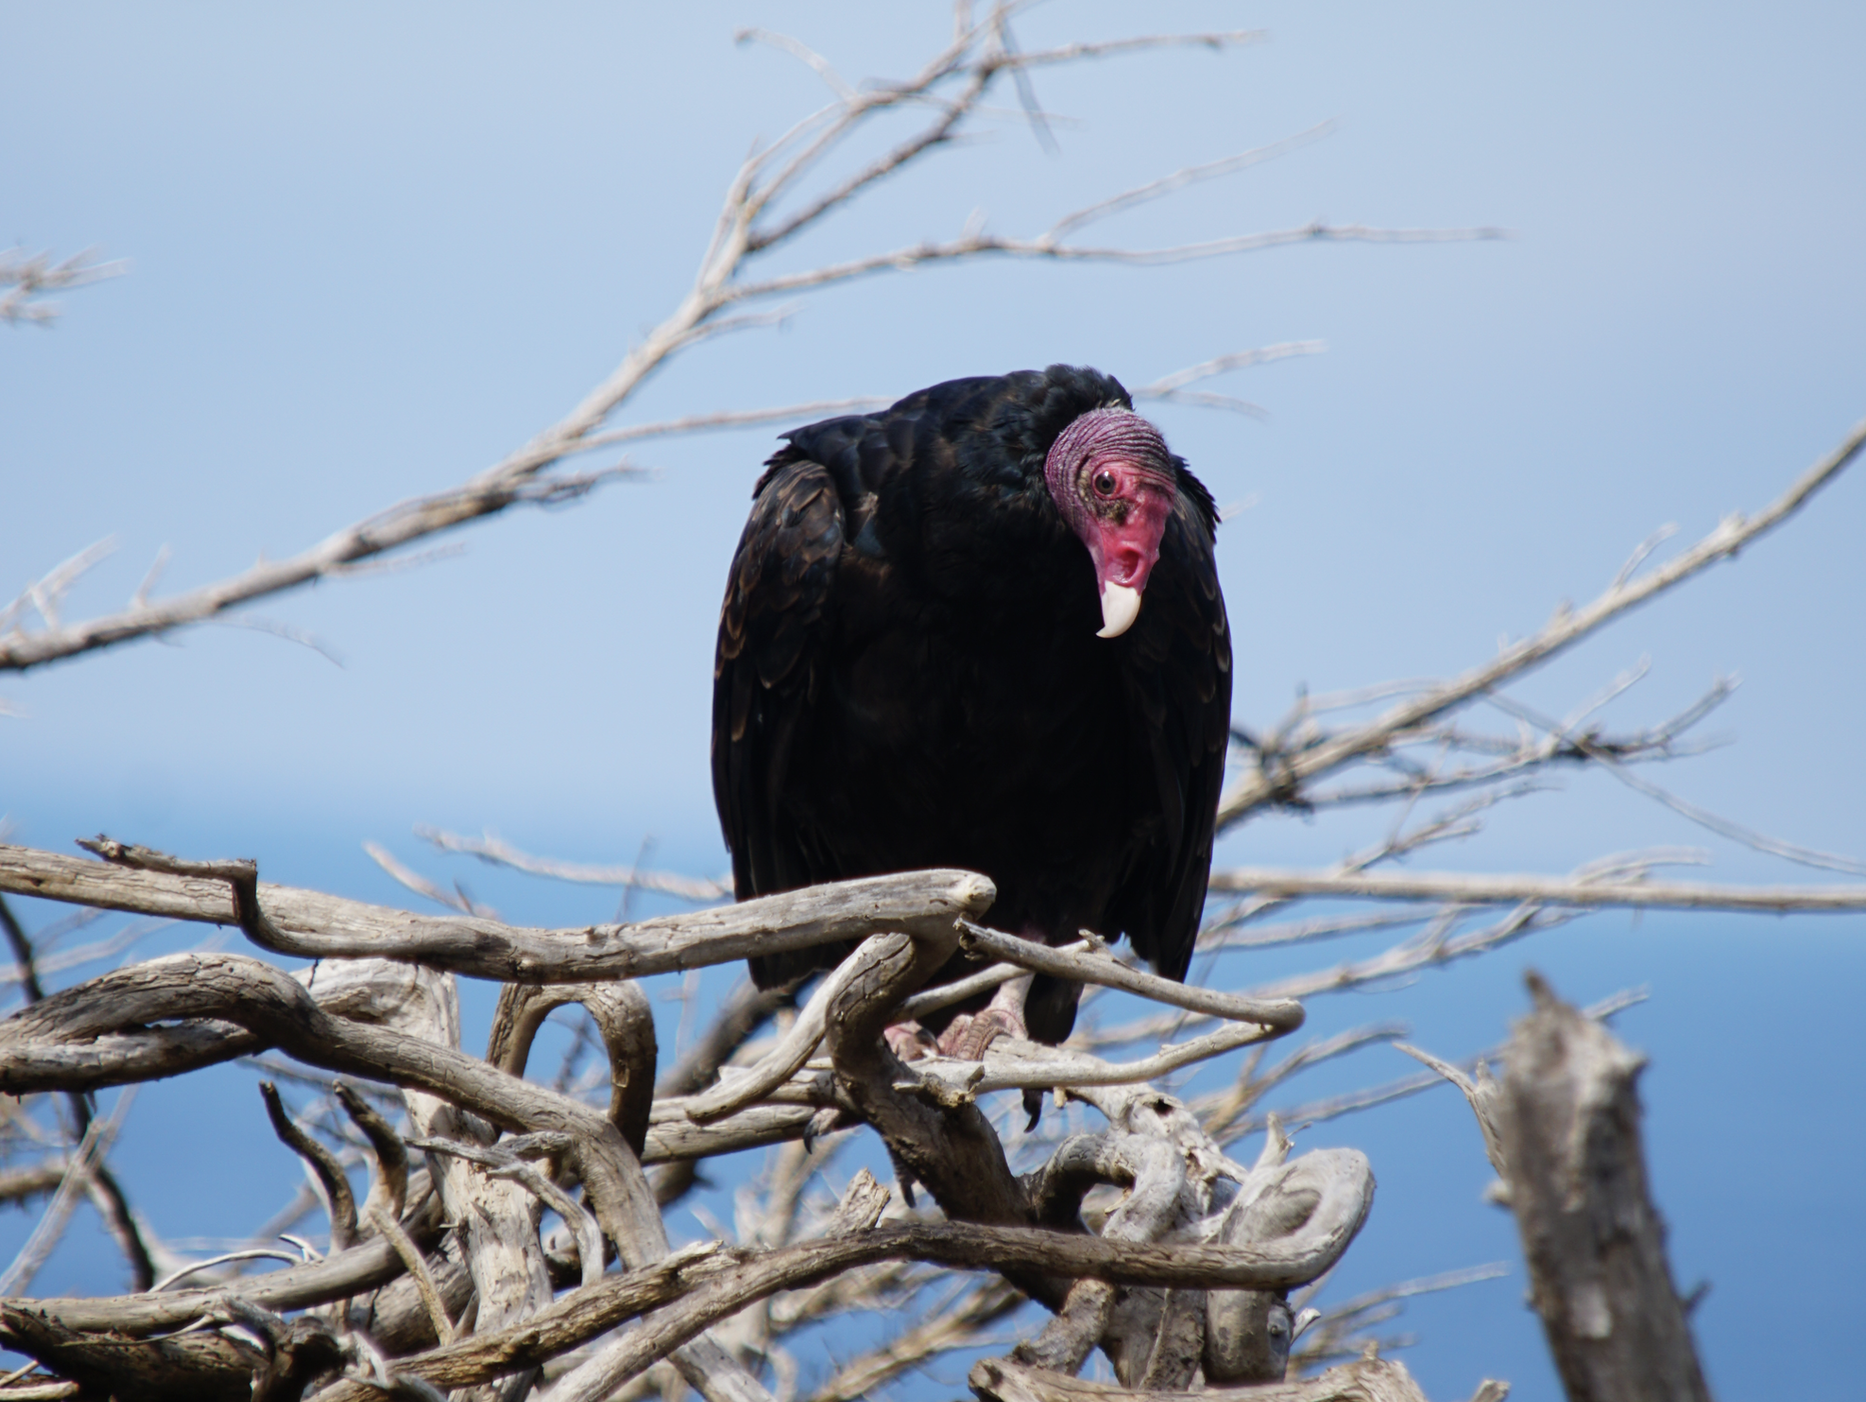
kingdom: Animalia
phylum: Chordata
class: Aves
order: Accipitriformes
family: Cathartidae
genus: Cathartes
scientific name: Cathartes aura
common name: Turkey vulture
